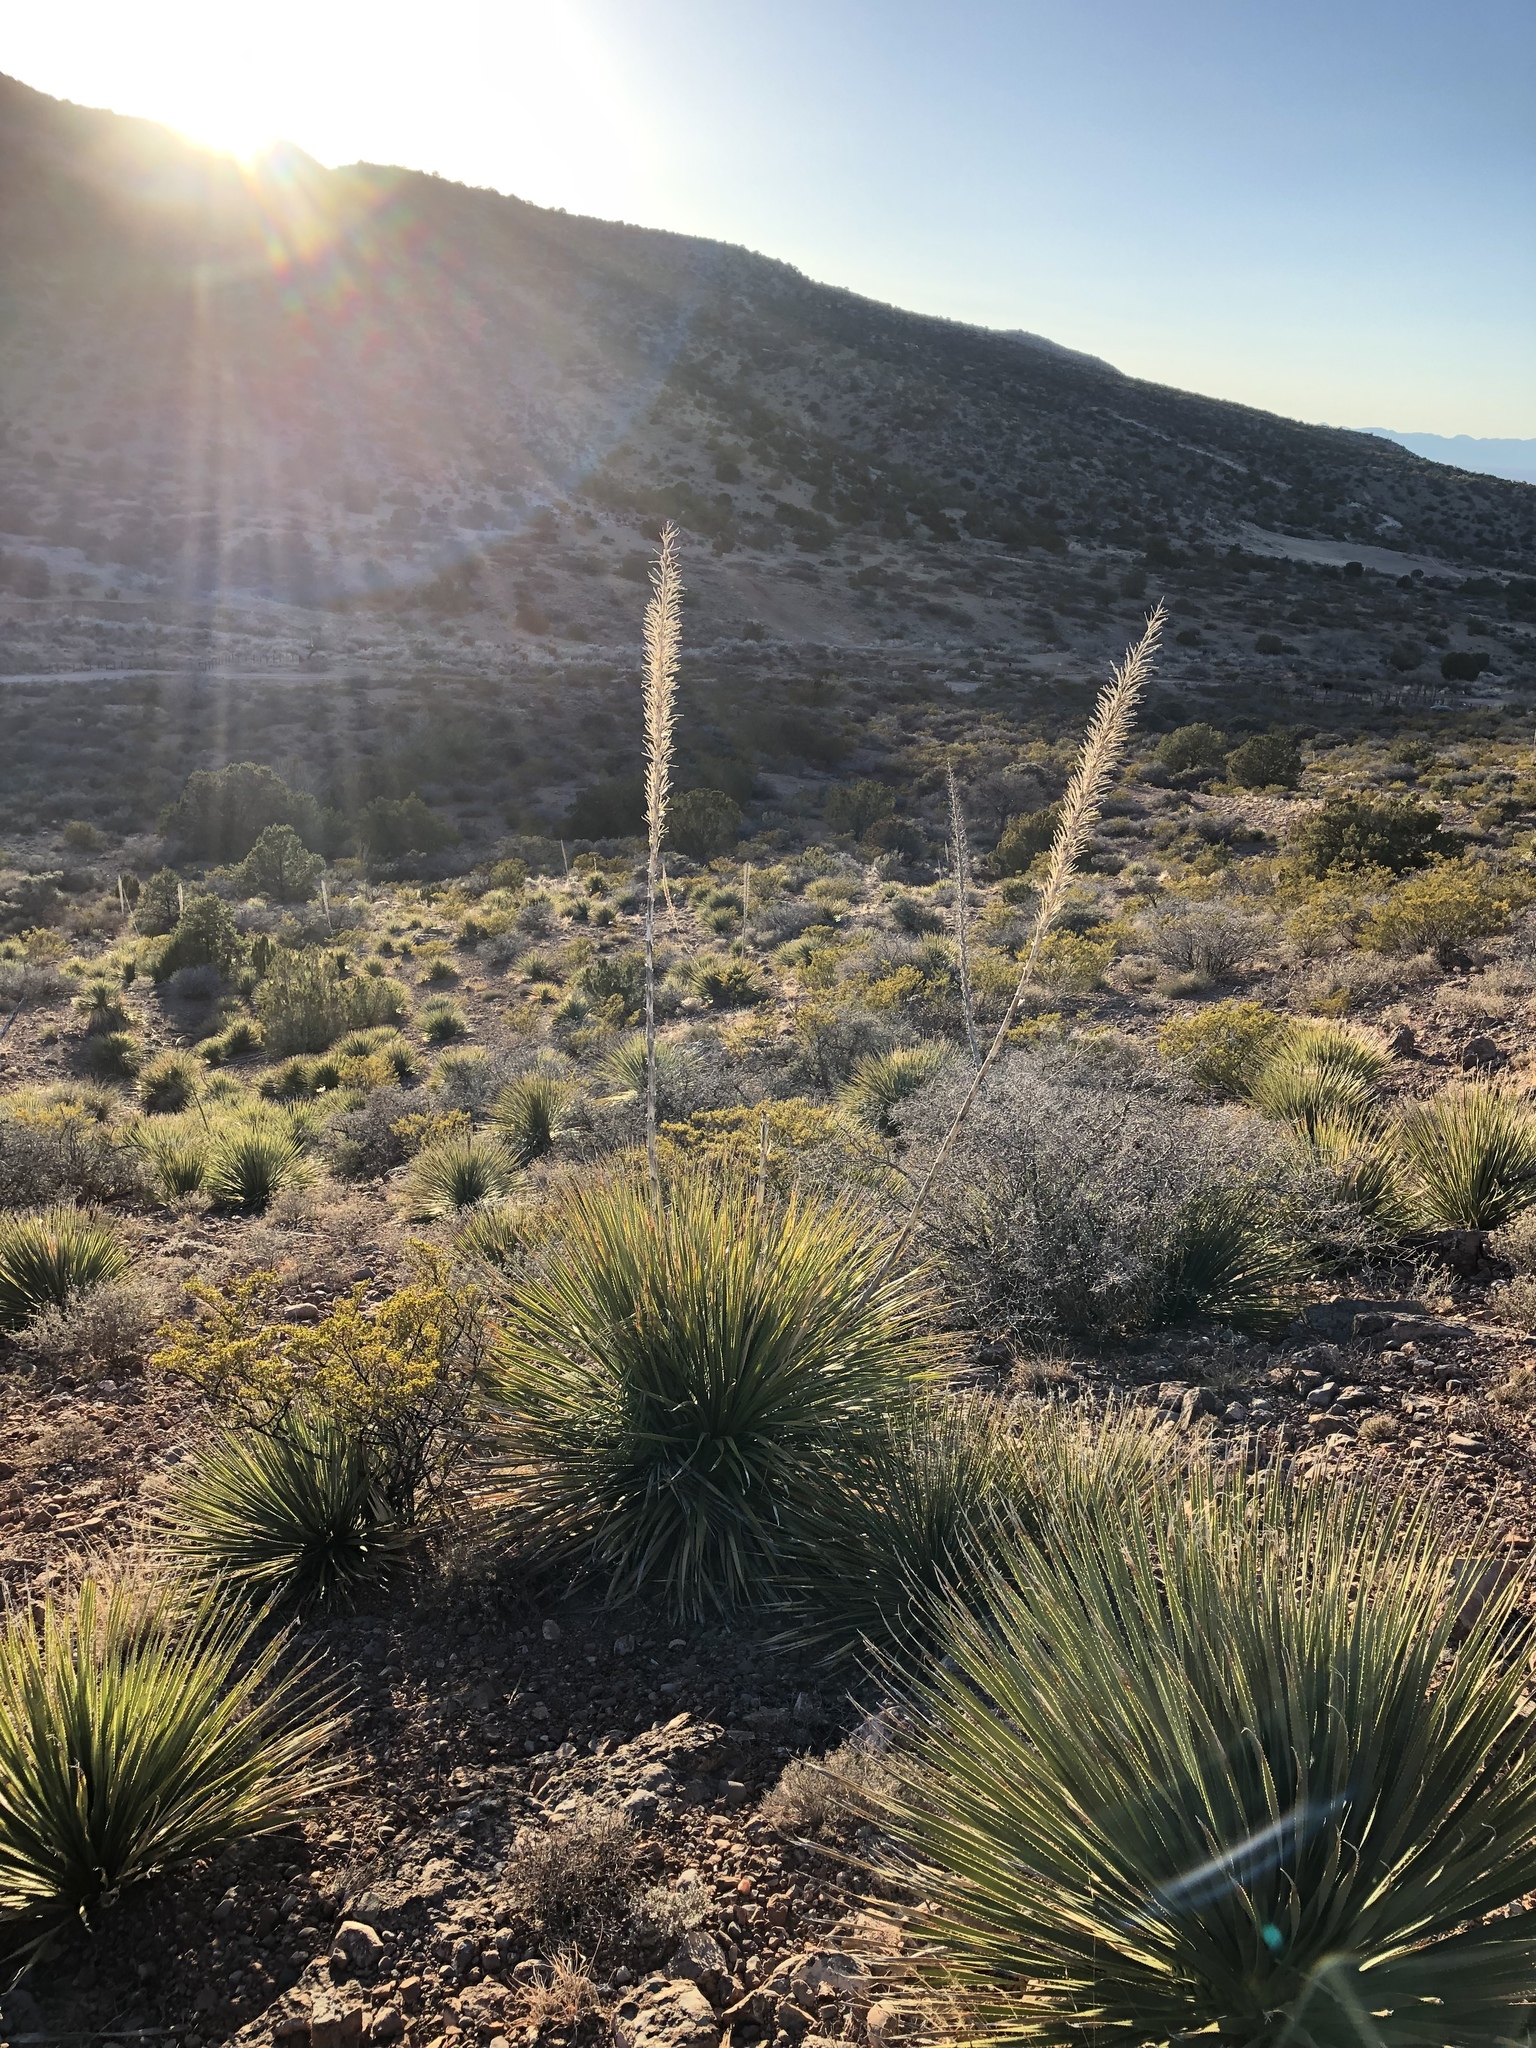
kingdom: Plantae
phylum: Tracheophyta
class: Liliopsida
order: Asparagales
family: Asparagaceae
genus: Dasylirion
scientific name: Dasylirion wheeleri
